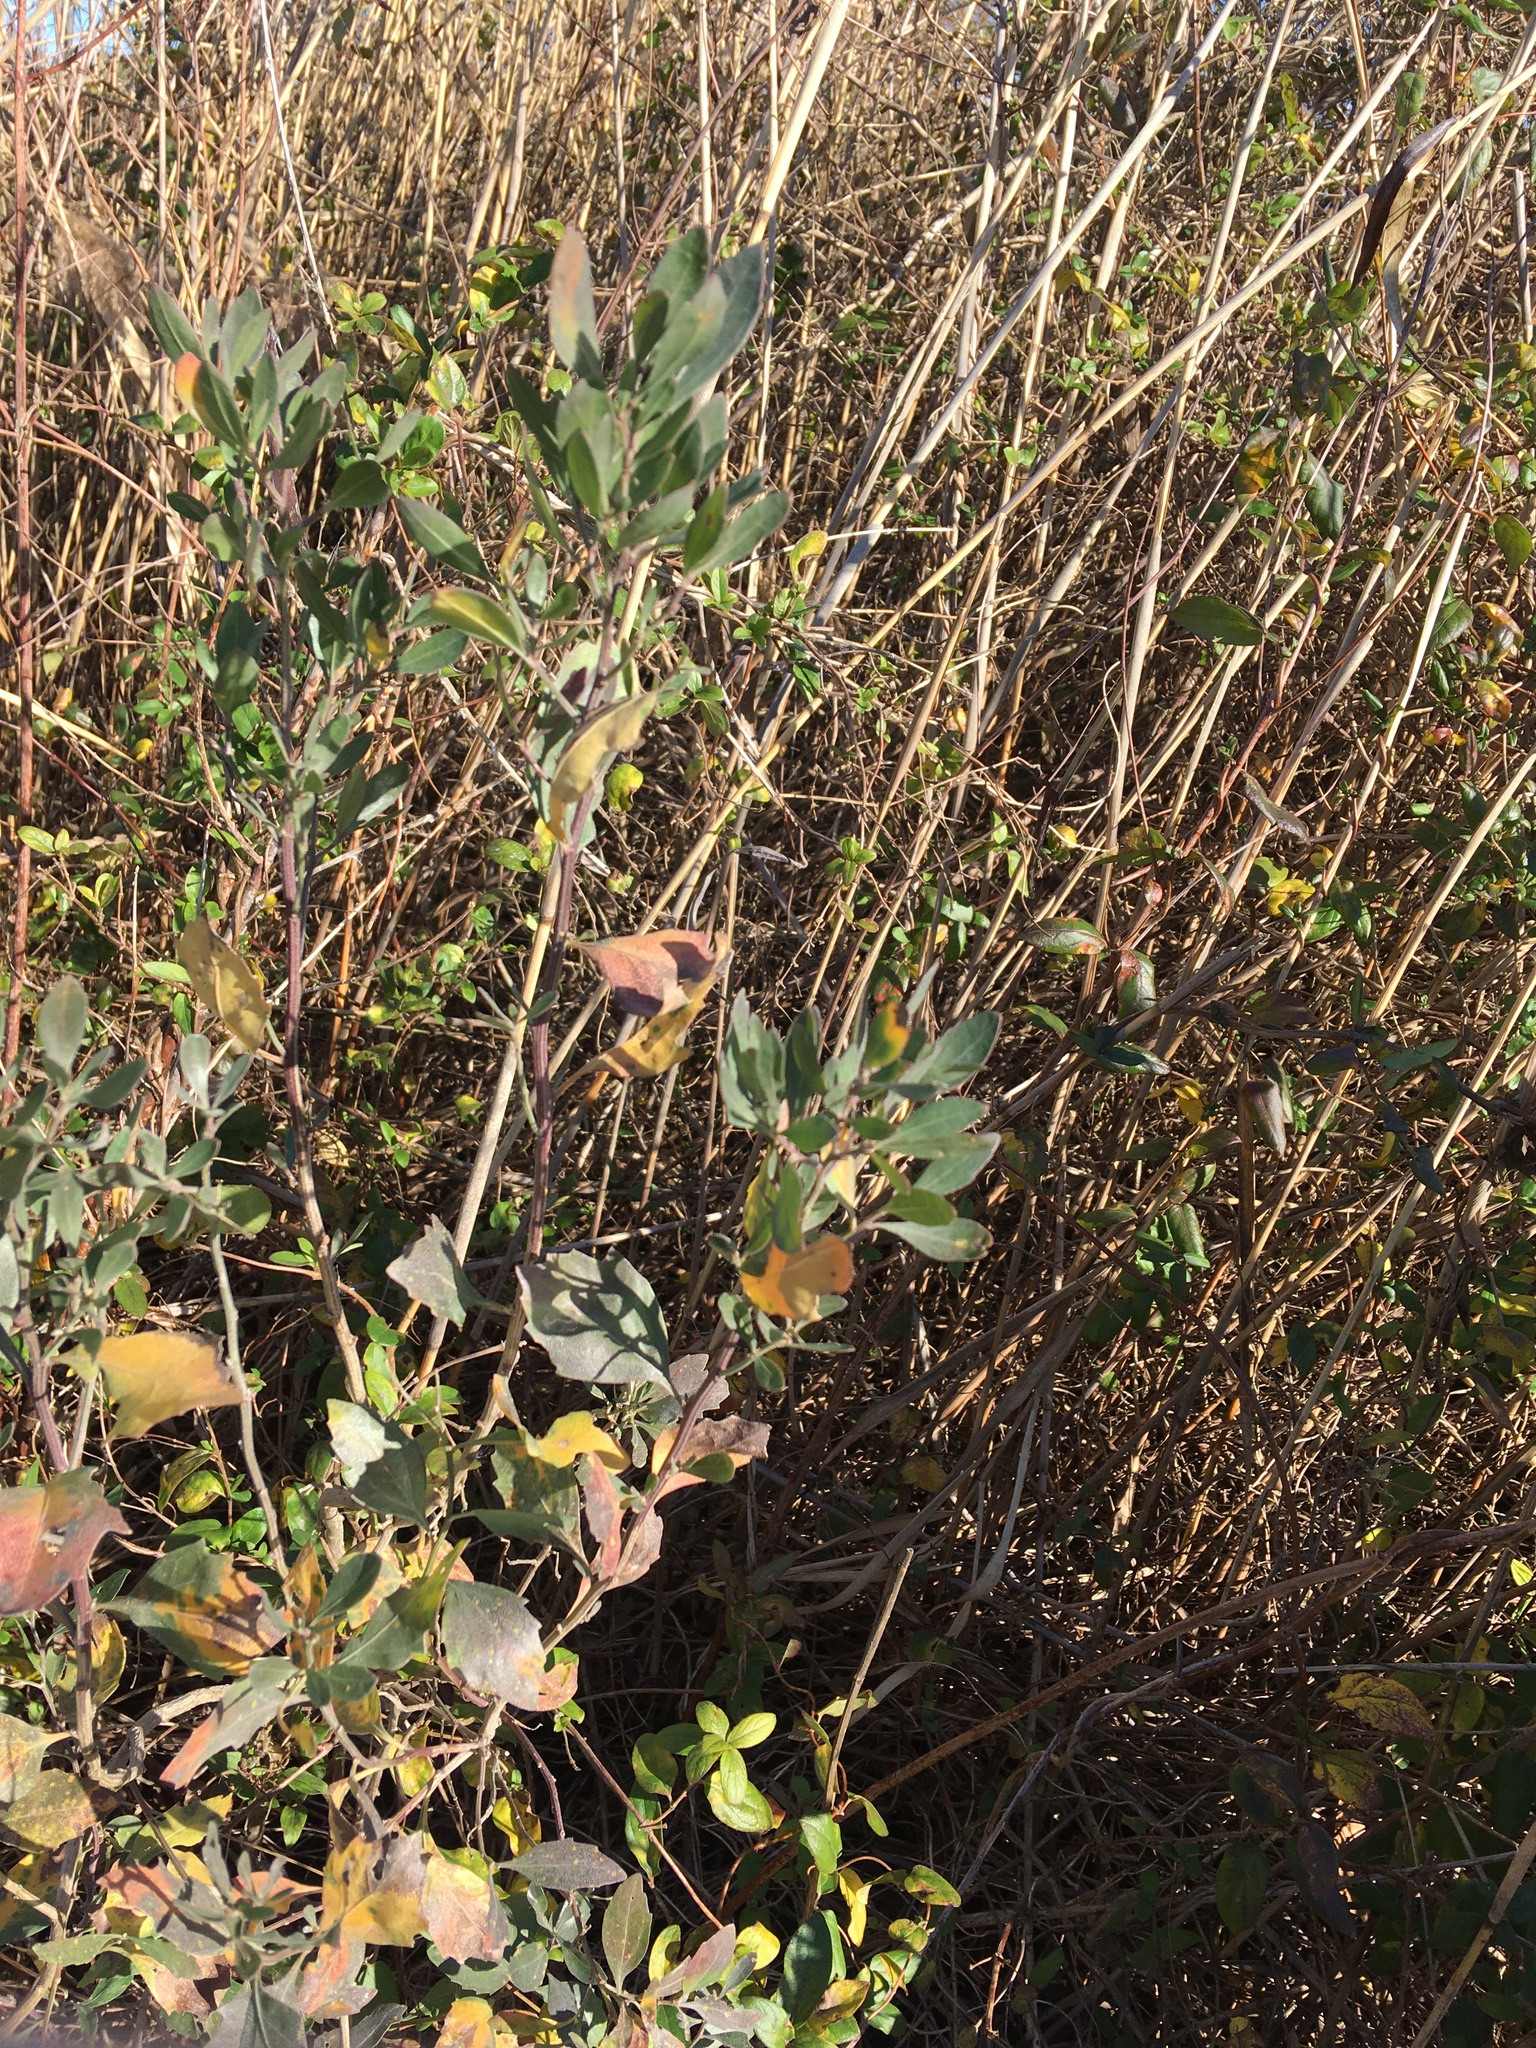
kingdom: Plantae
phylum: Tracheophyta
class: Magnoliopsida
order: Asterales
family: Asteraceae
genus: Baccharis
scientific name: Baccharis halimifolia
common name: Eastern baccharis
